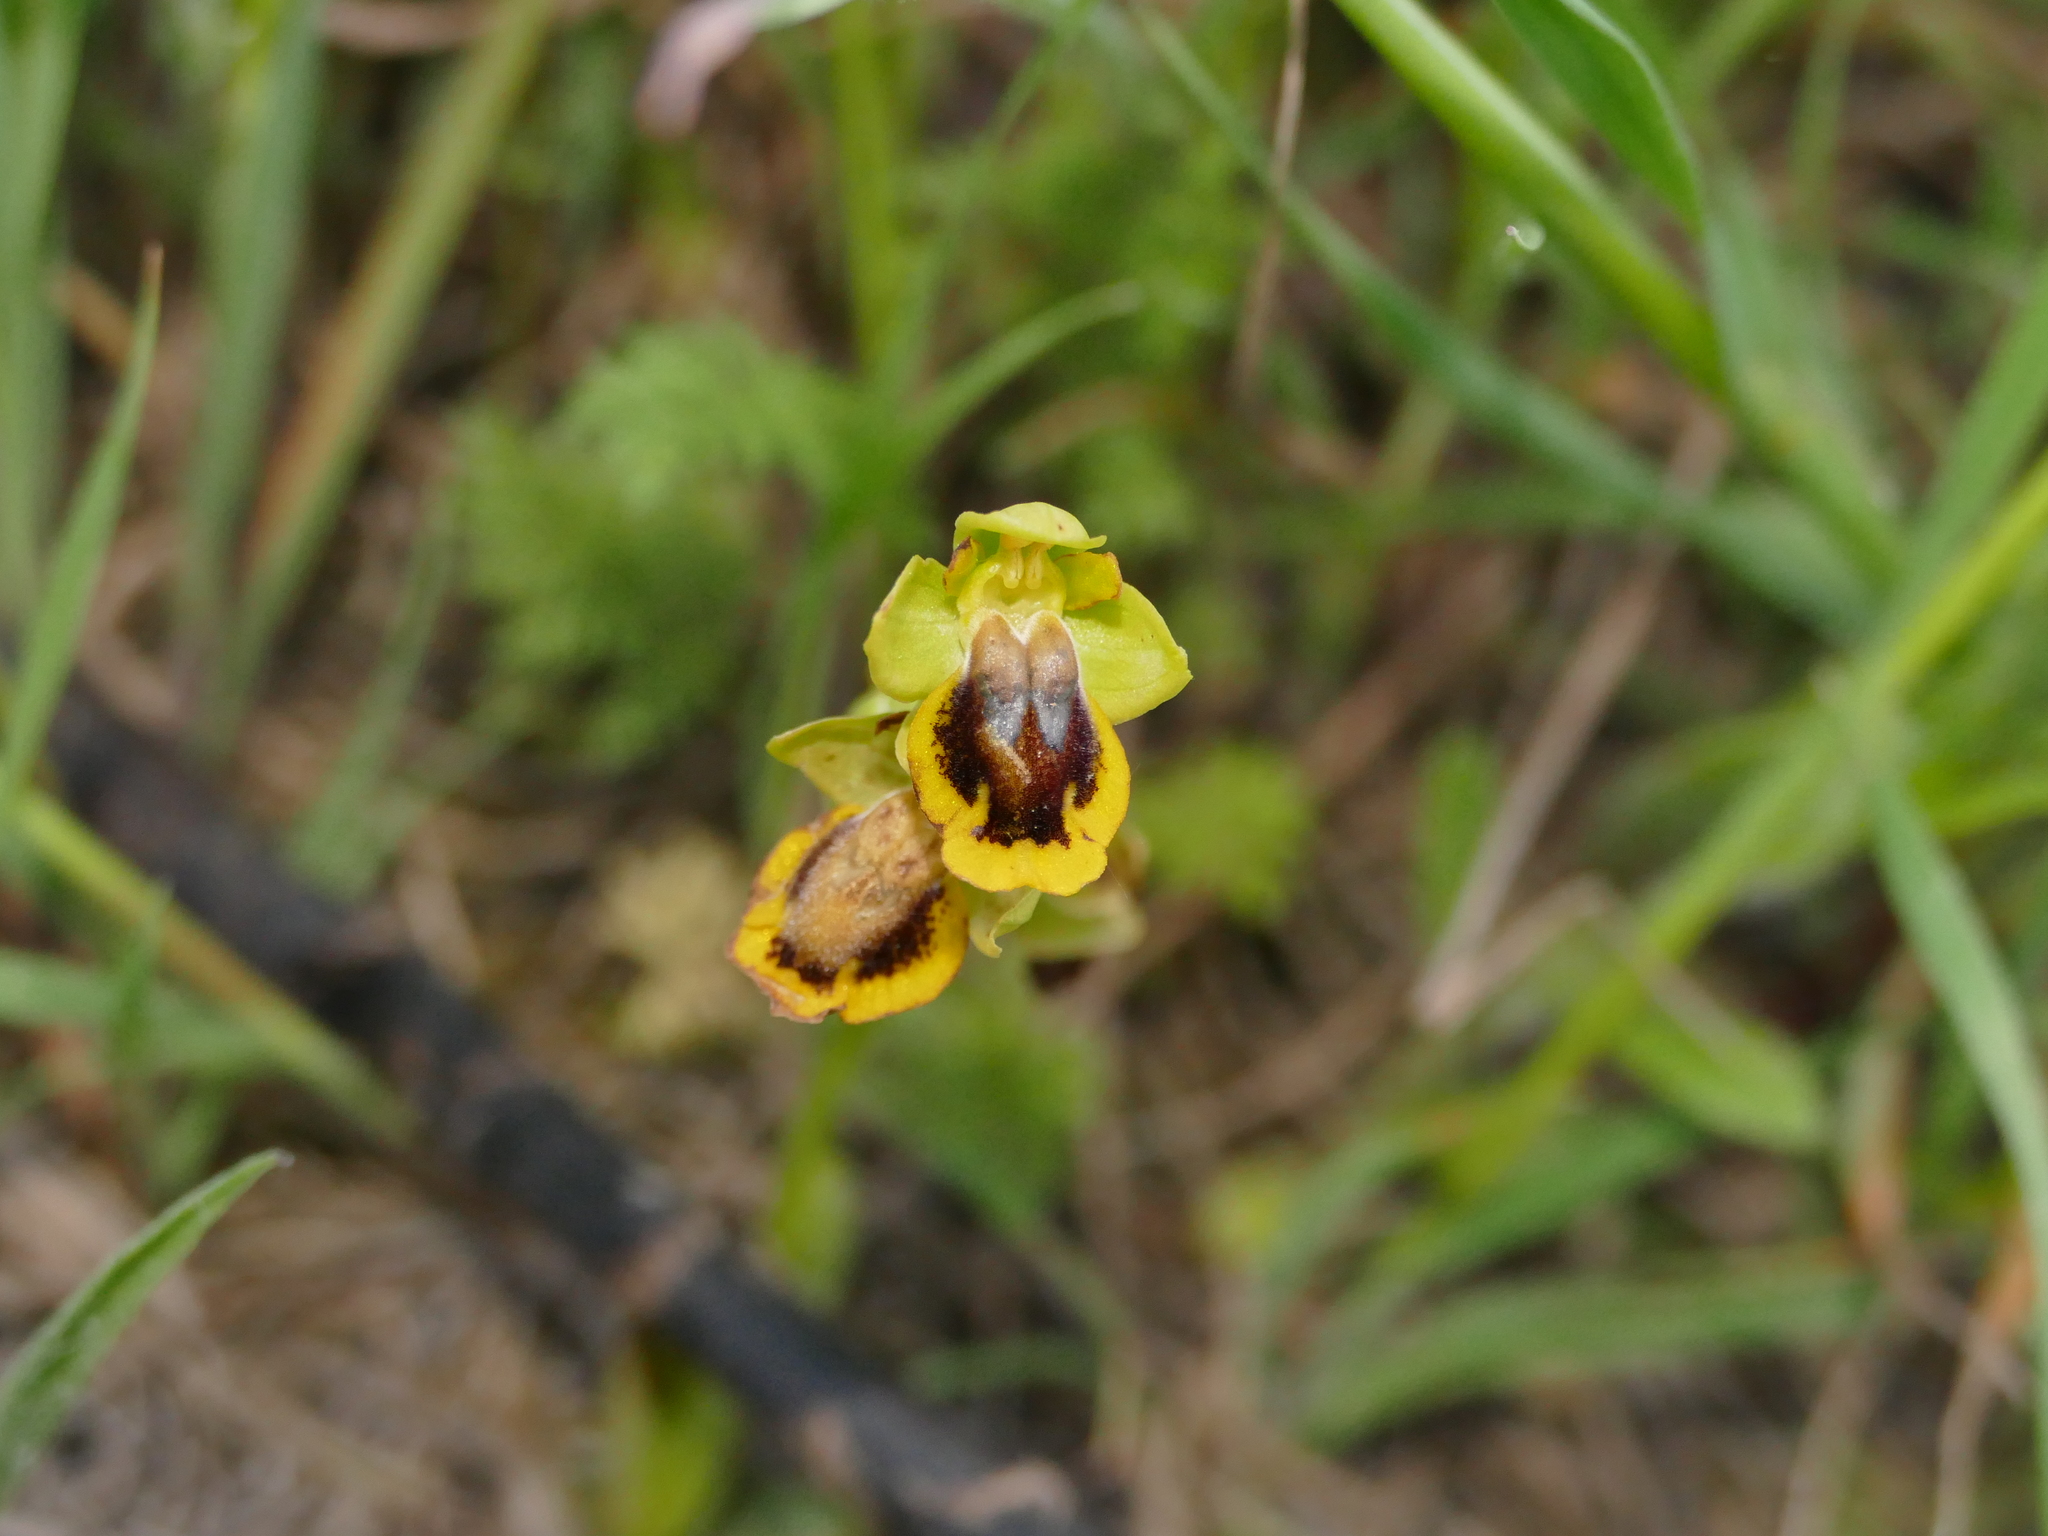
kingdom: Plantae
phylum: Tracheophyta
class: Liliopsida
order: Asparagales
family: Orchidaceae
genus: Ophrys
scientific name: Ophrys lutea
